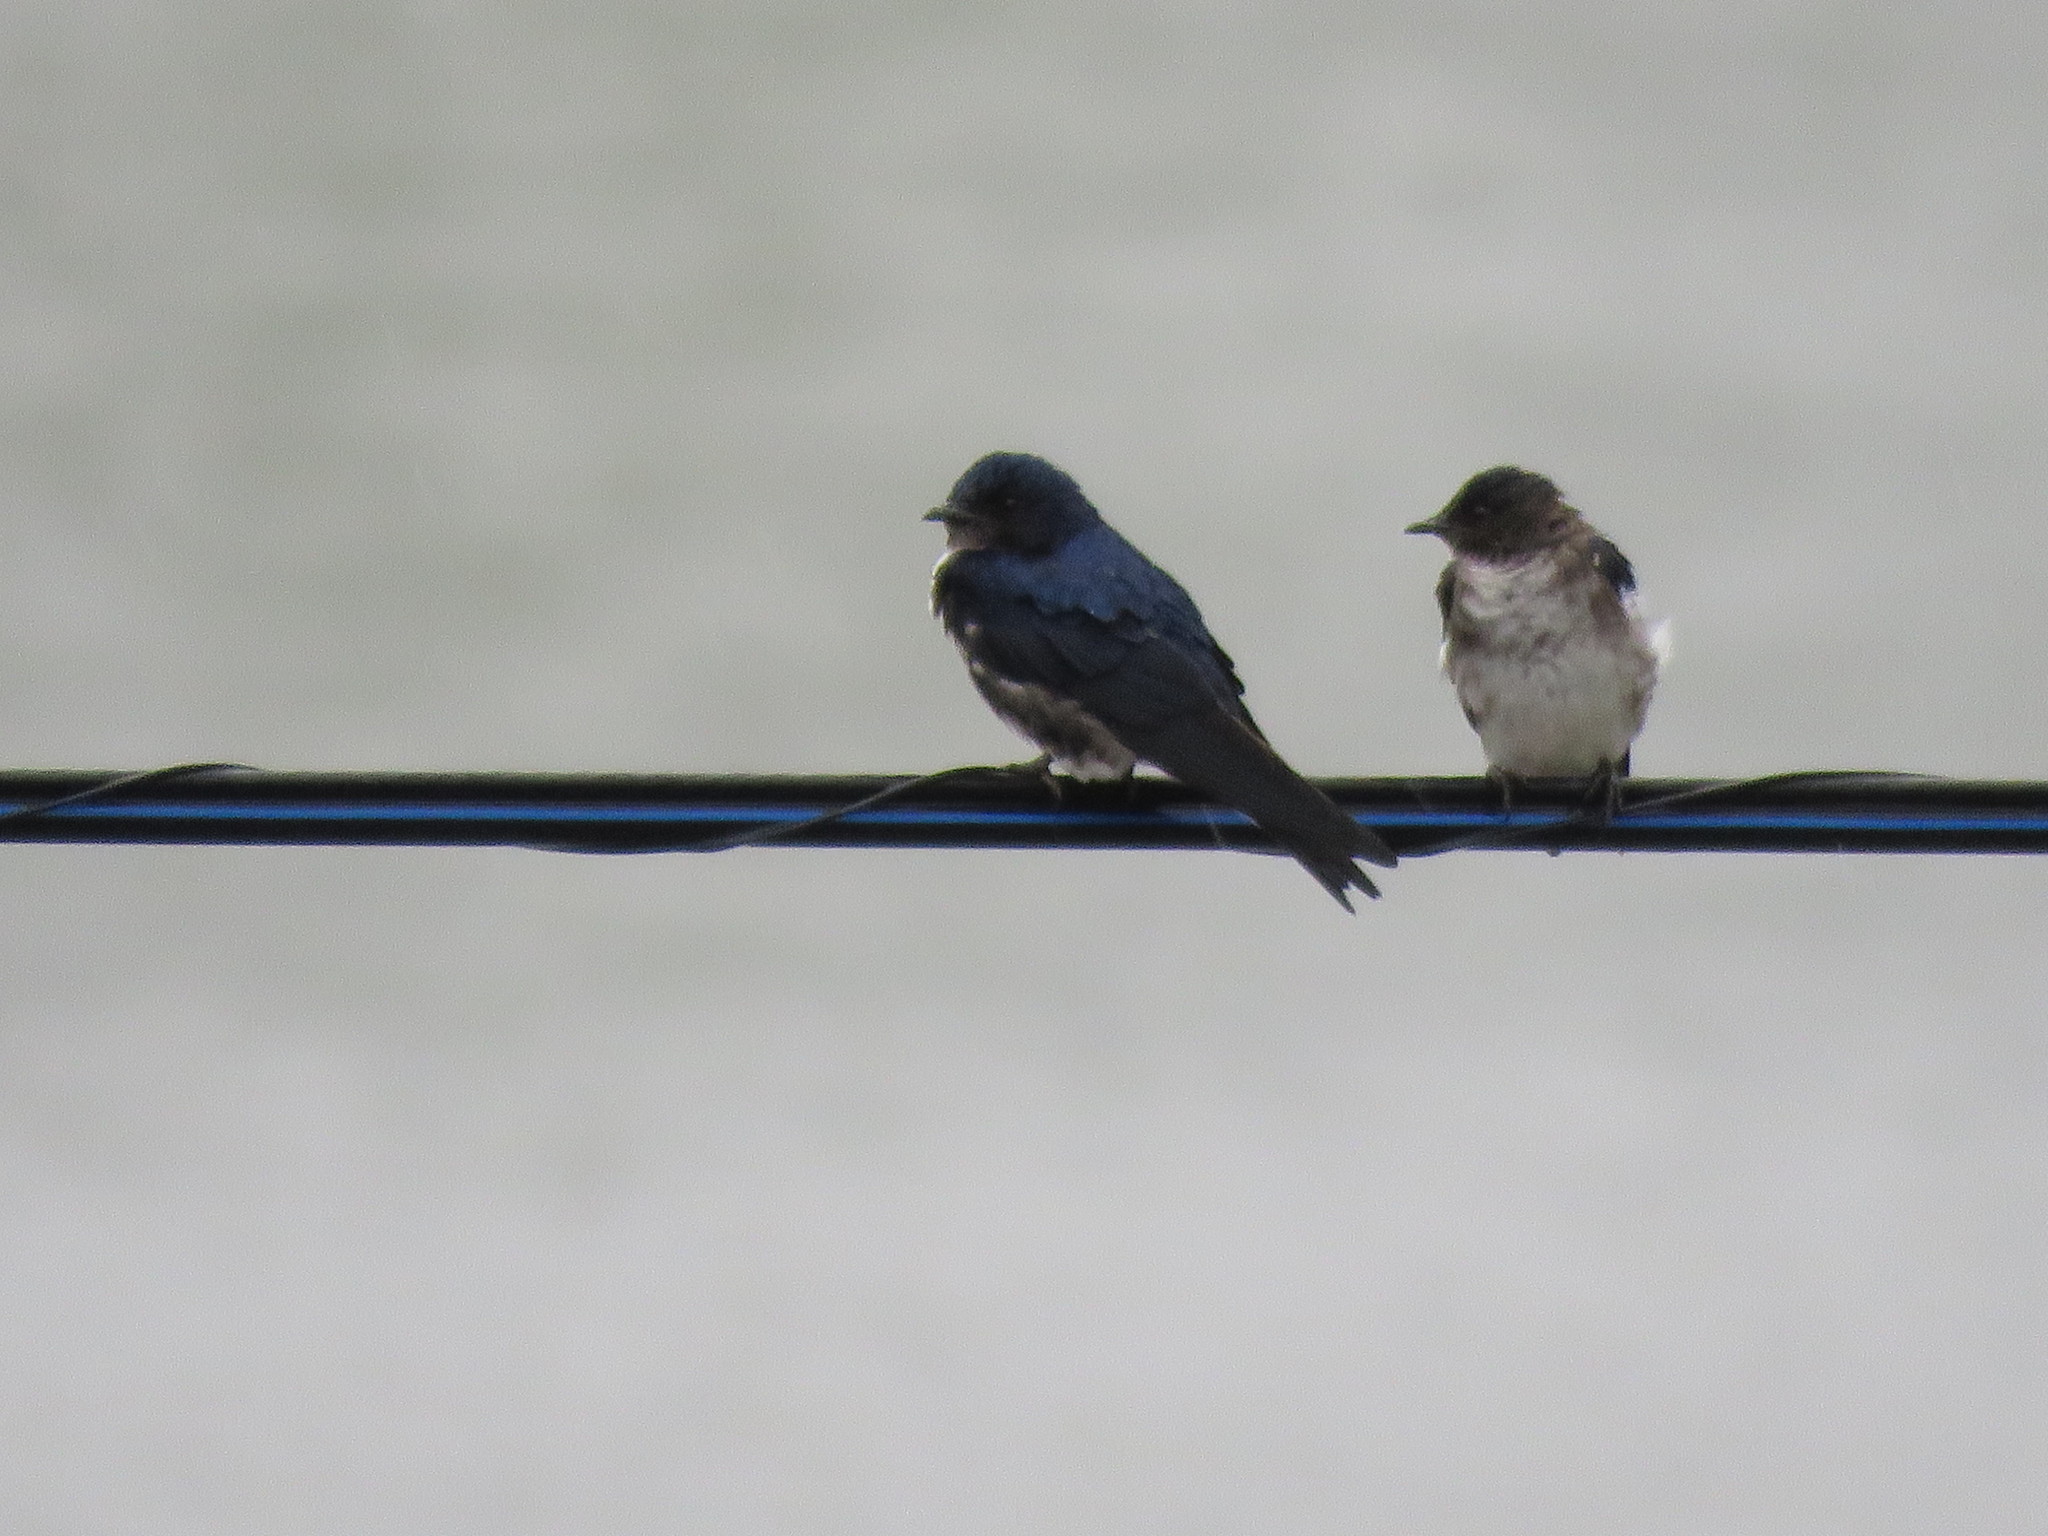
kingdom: Animalia
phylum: Chordata
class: Aves
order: Passeriformes
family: Hirundinidae
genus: Progne
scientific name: Progne chalybea
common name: Grey-breasted martin
